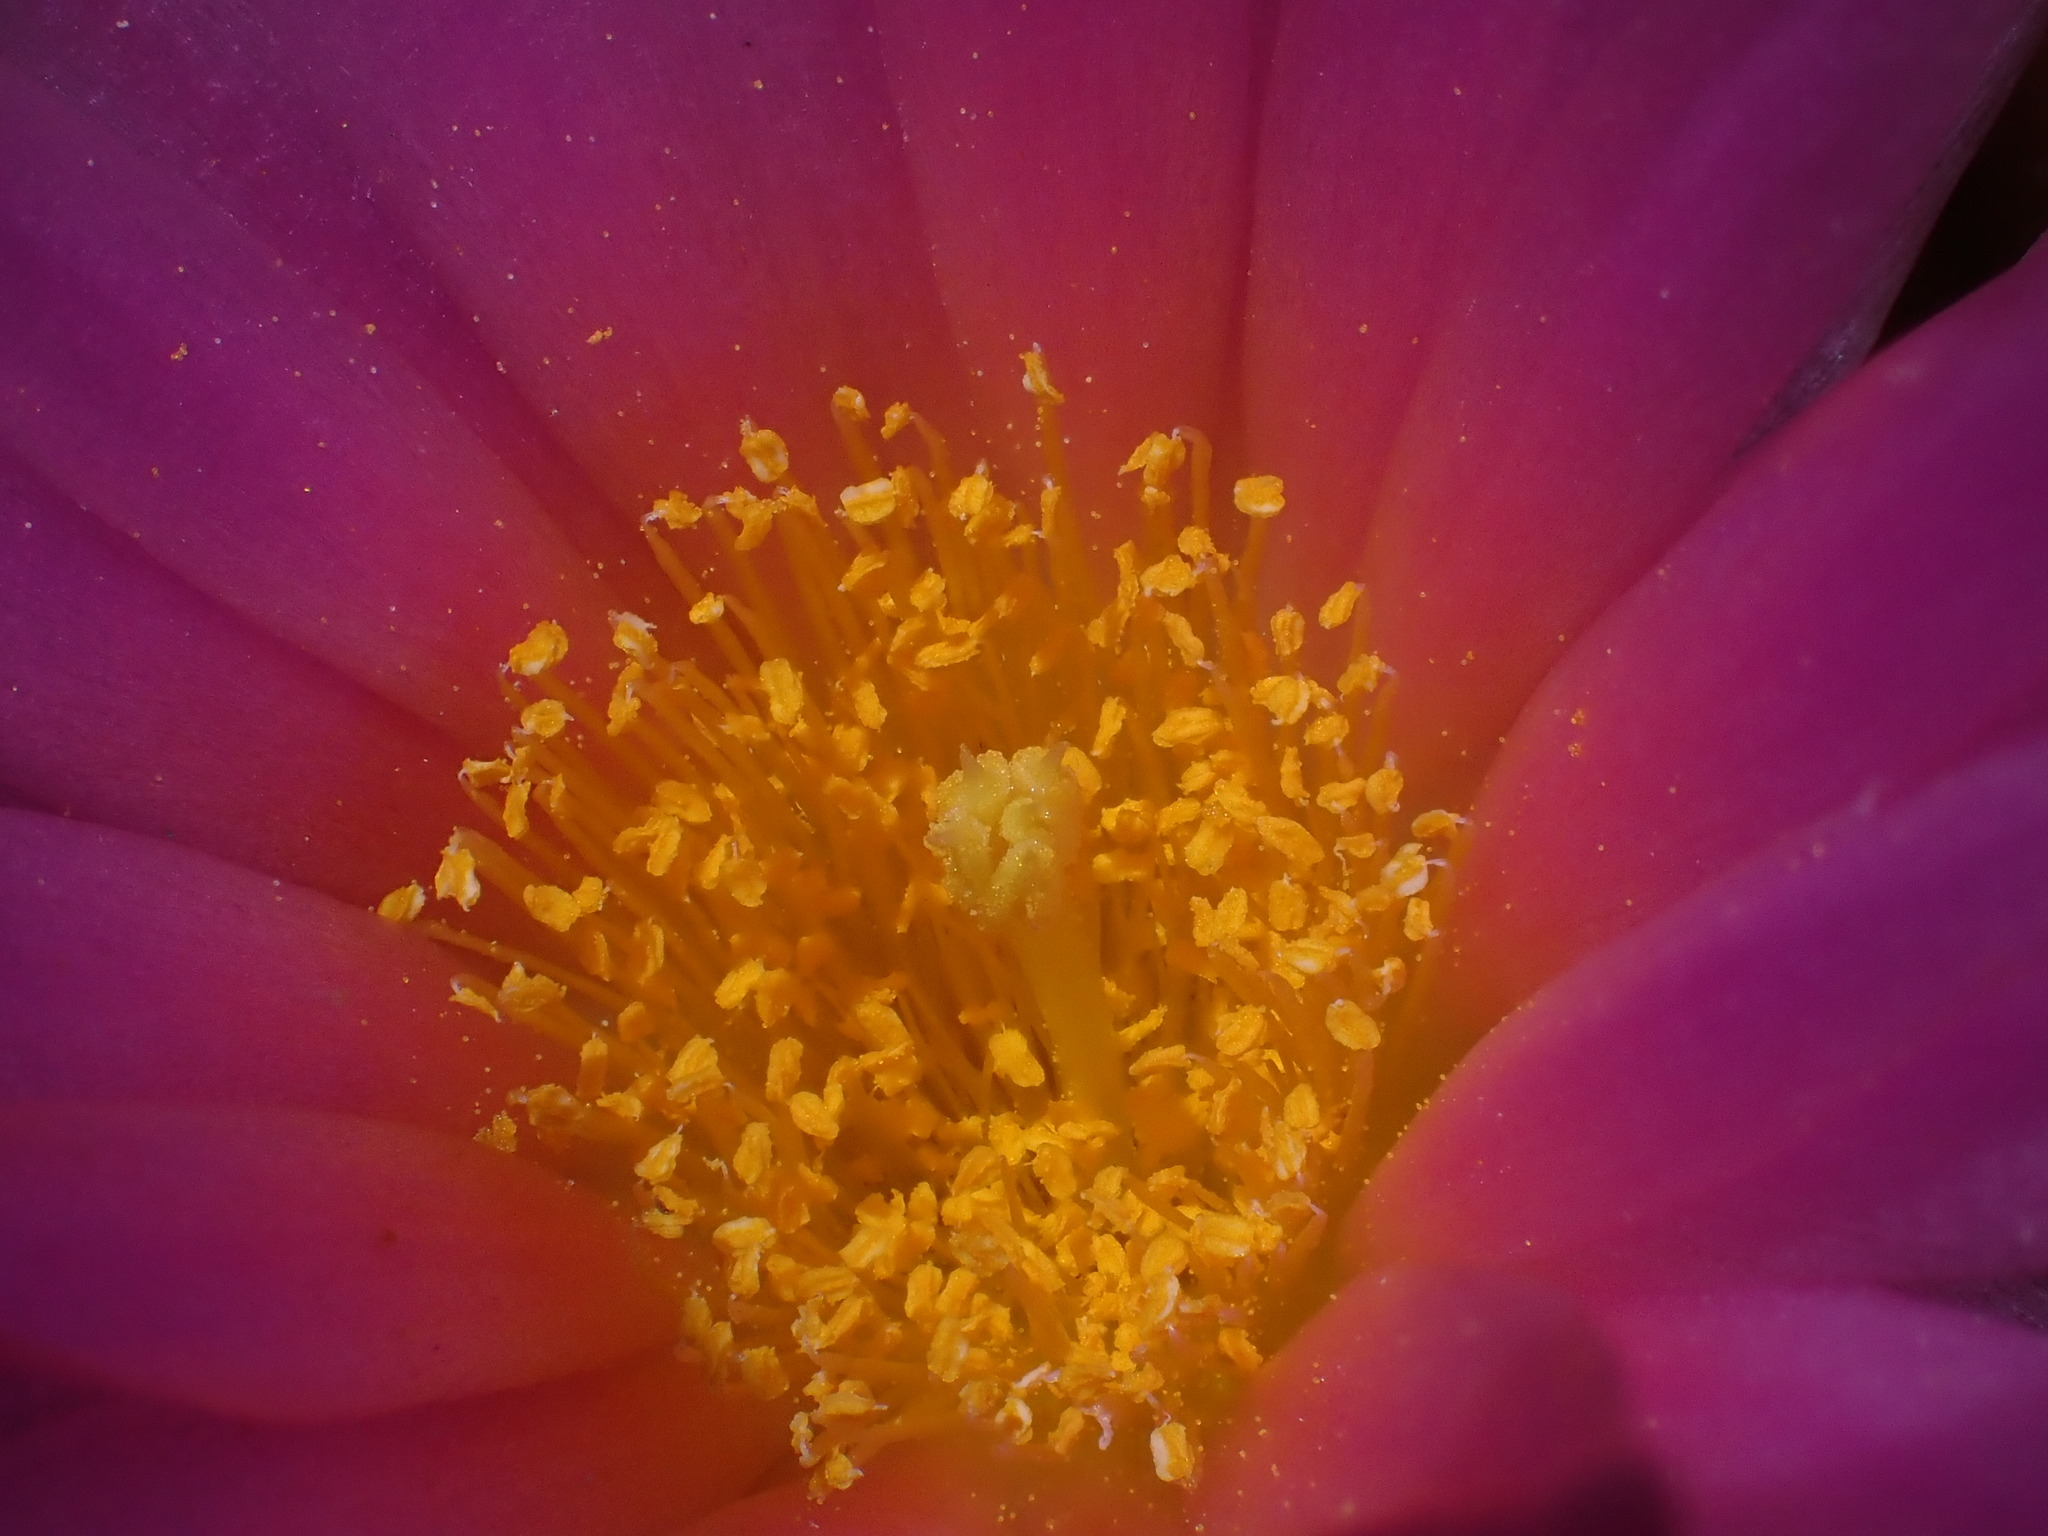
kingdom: Plantae
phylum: Tracheophyta
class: Magnoliopsida
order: Caryophyllales
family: Cactaceae
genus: Pediocactus
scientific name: Pediocactus nigrispinus
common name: Simpson's hedgehog cactus
